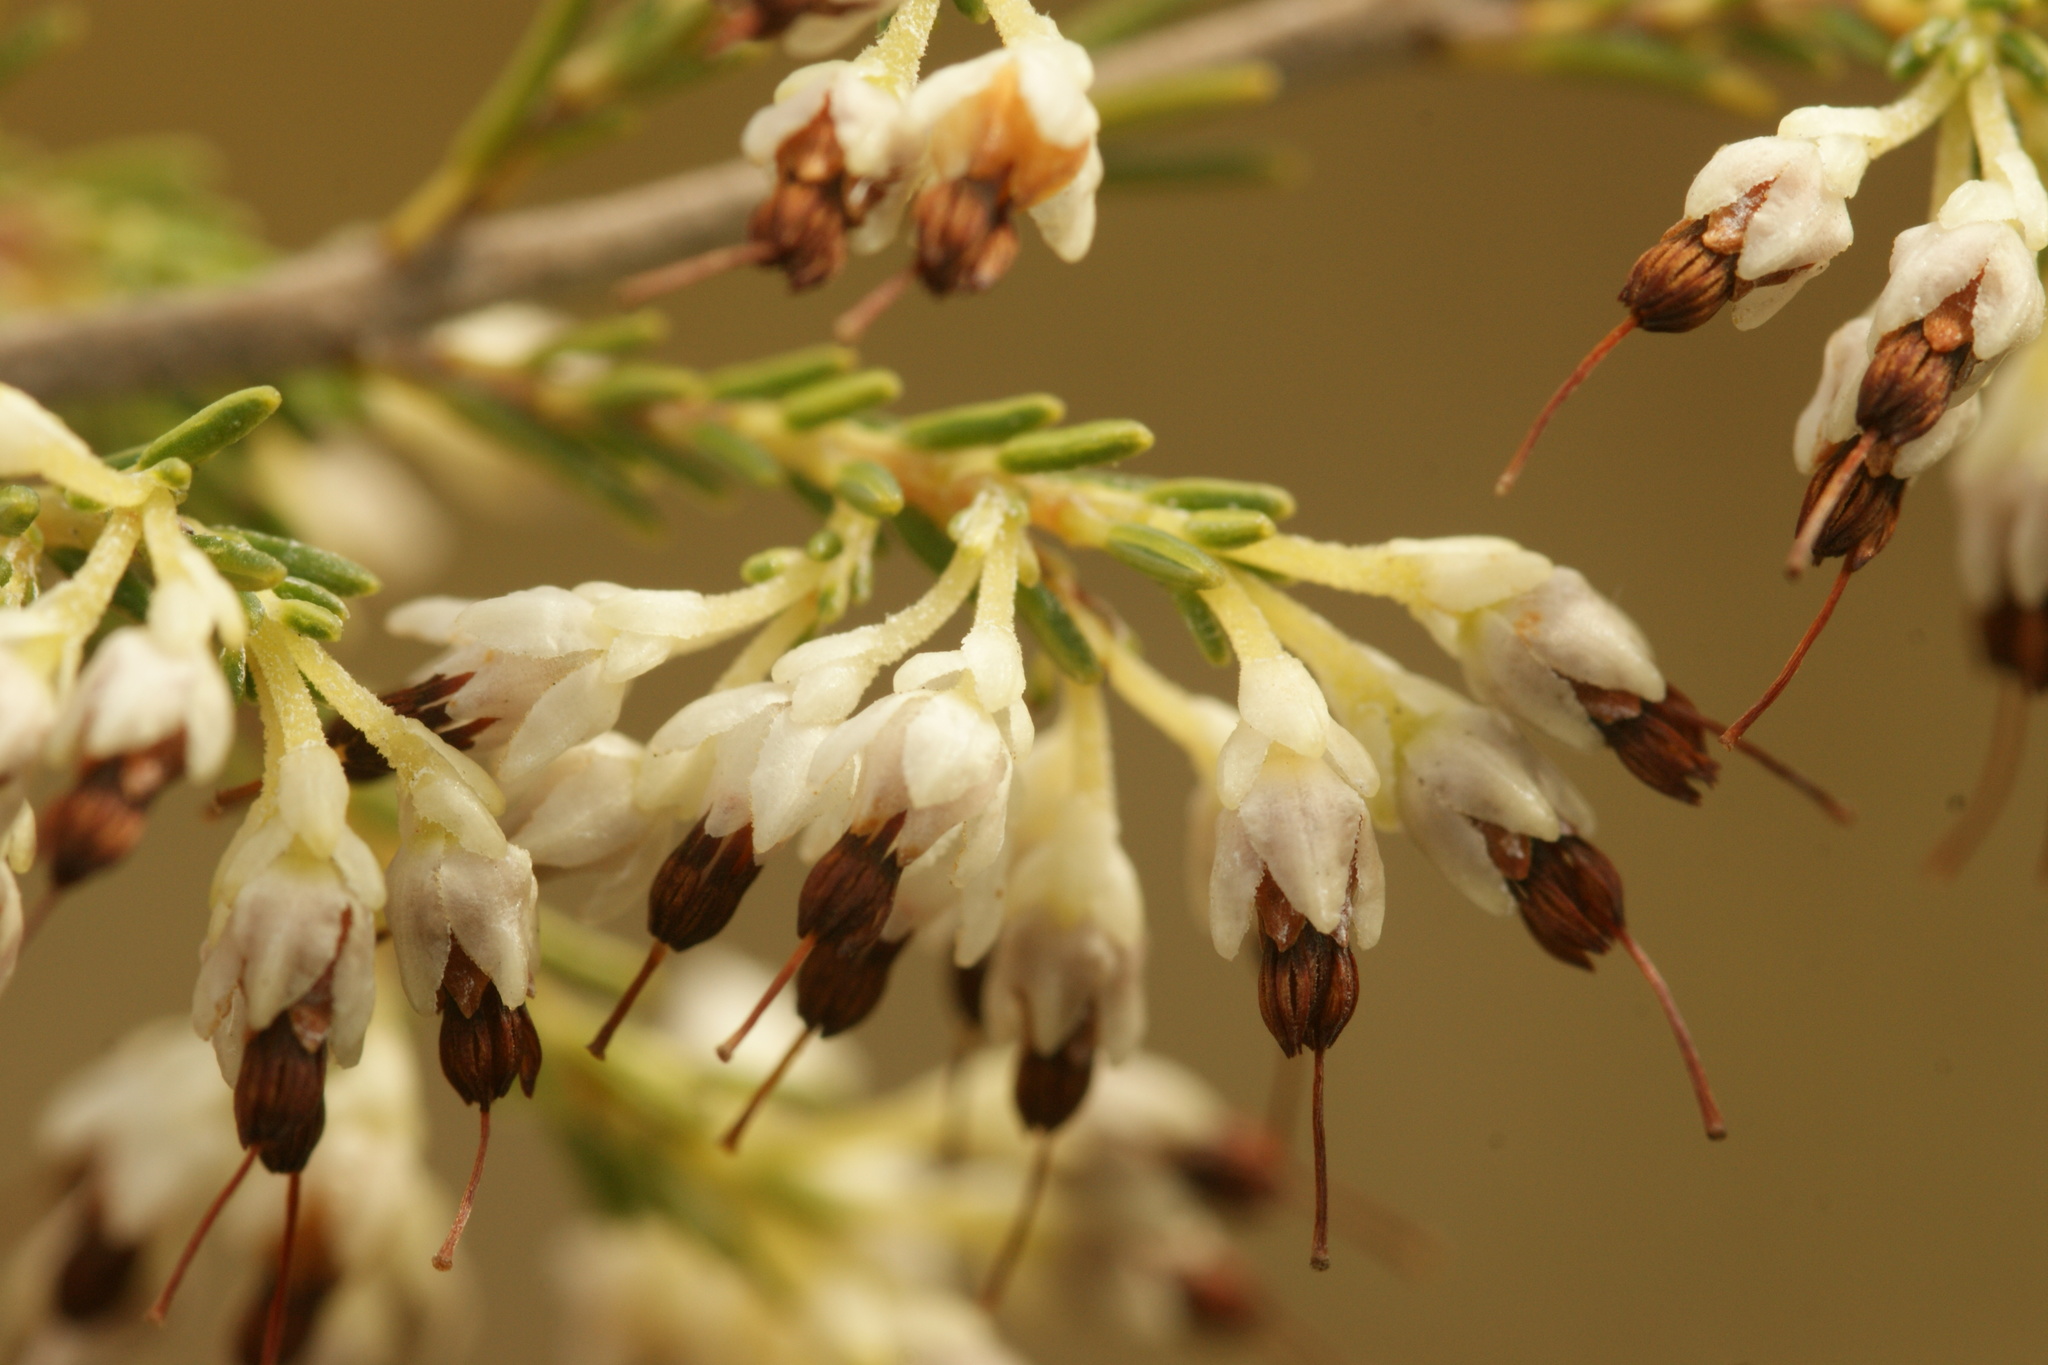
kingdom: Plantae
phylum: Tracheophyta
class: Magnoliopsida
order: Ericales
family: Ericaceae
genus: Erica
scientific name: Erica imbricata
